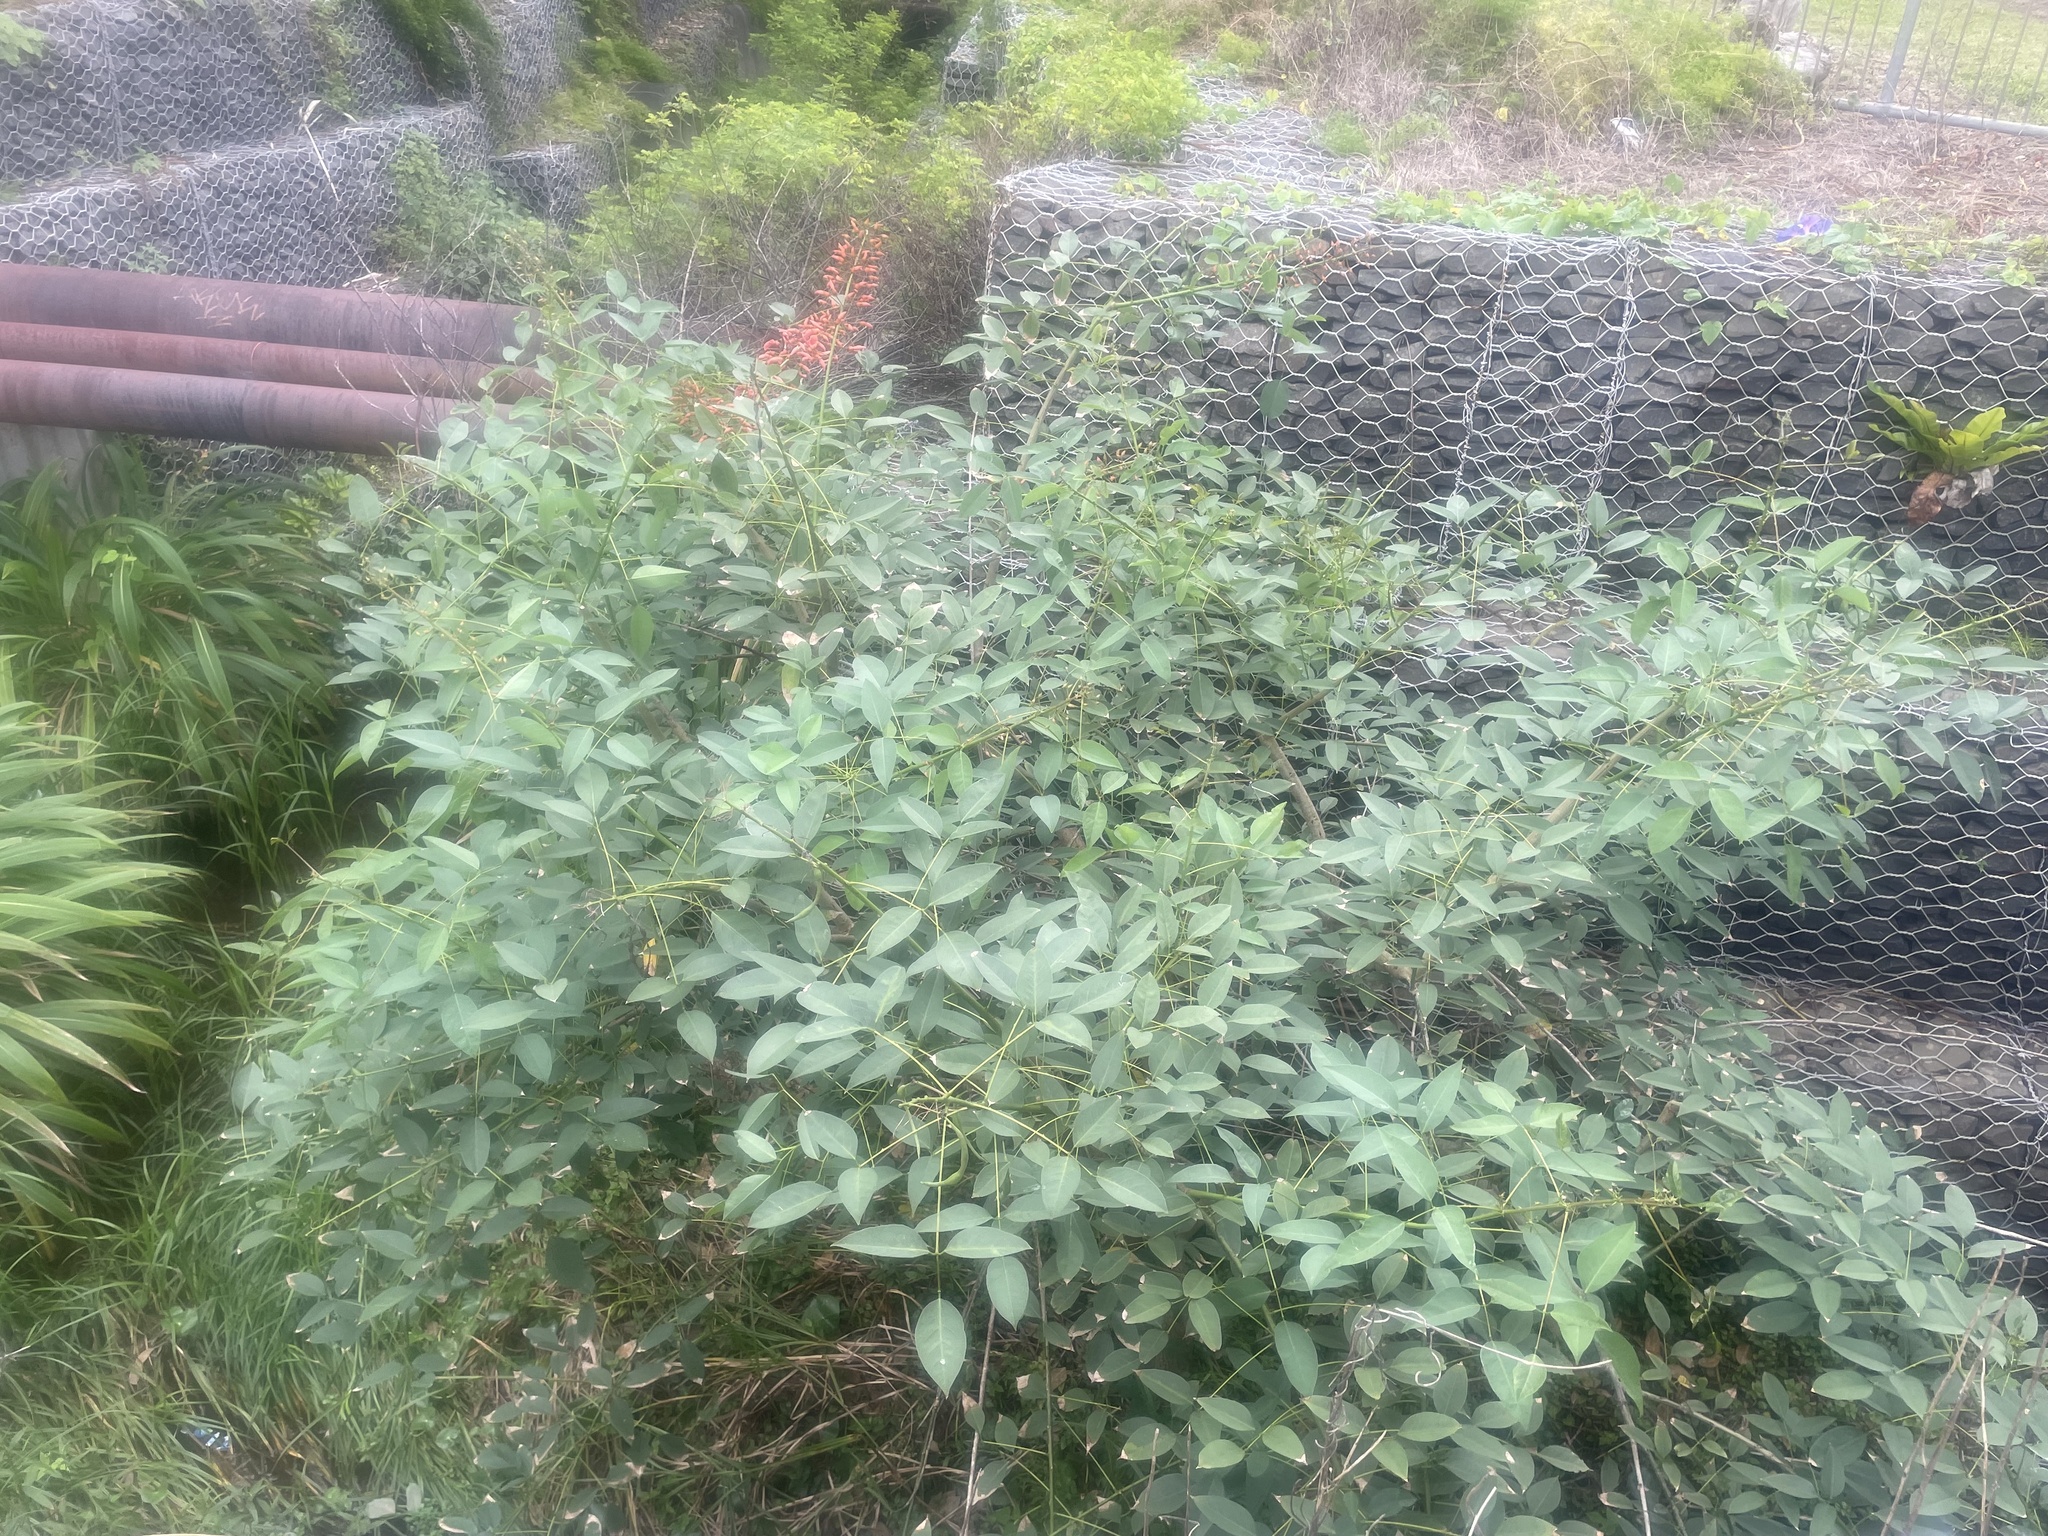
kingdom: Plantae
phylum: Tracheophyta
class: Magnoliopsida
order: Fabales
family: Fabaceae
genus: Erythrina
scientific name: Erythrina crista-galli
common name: Cockspur coral tree
